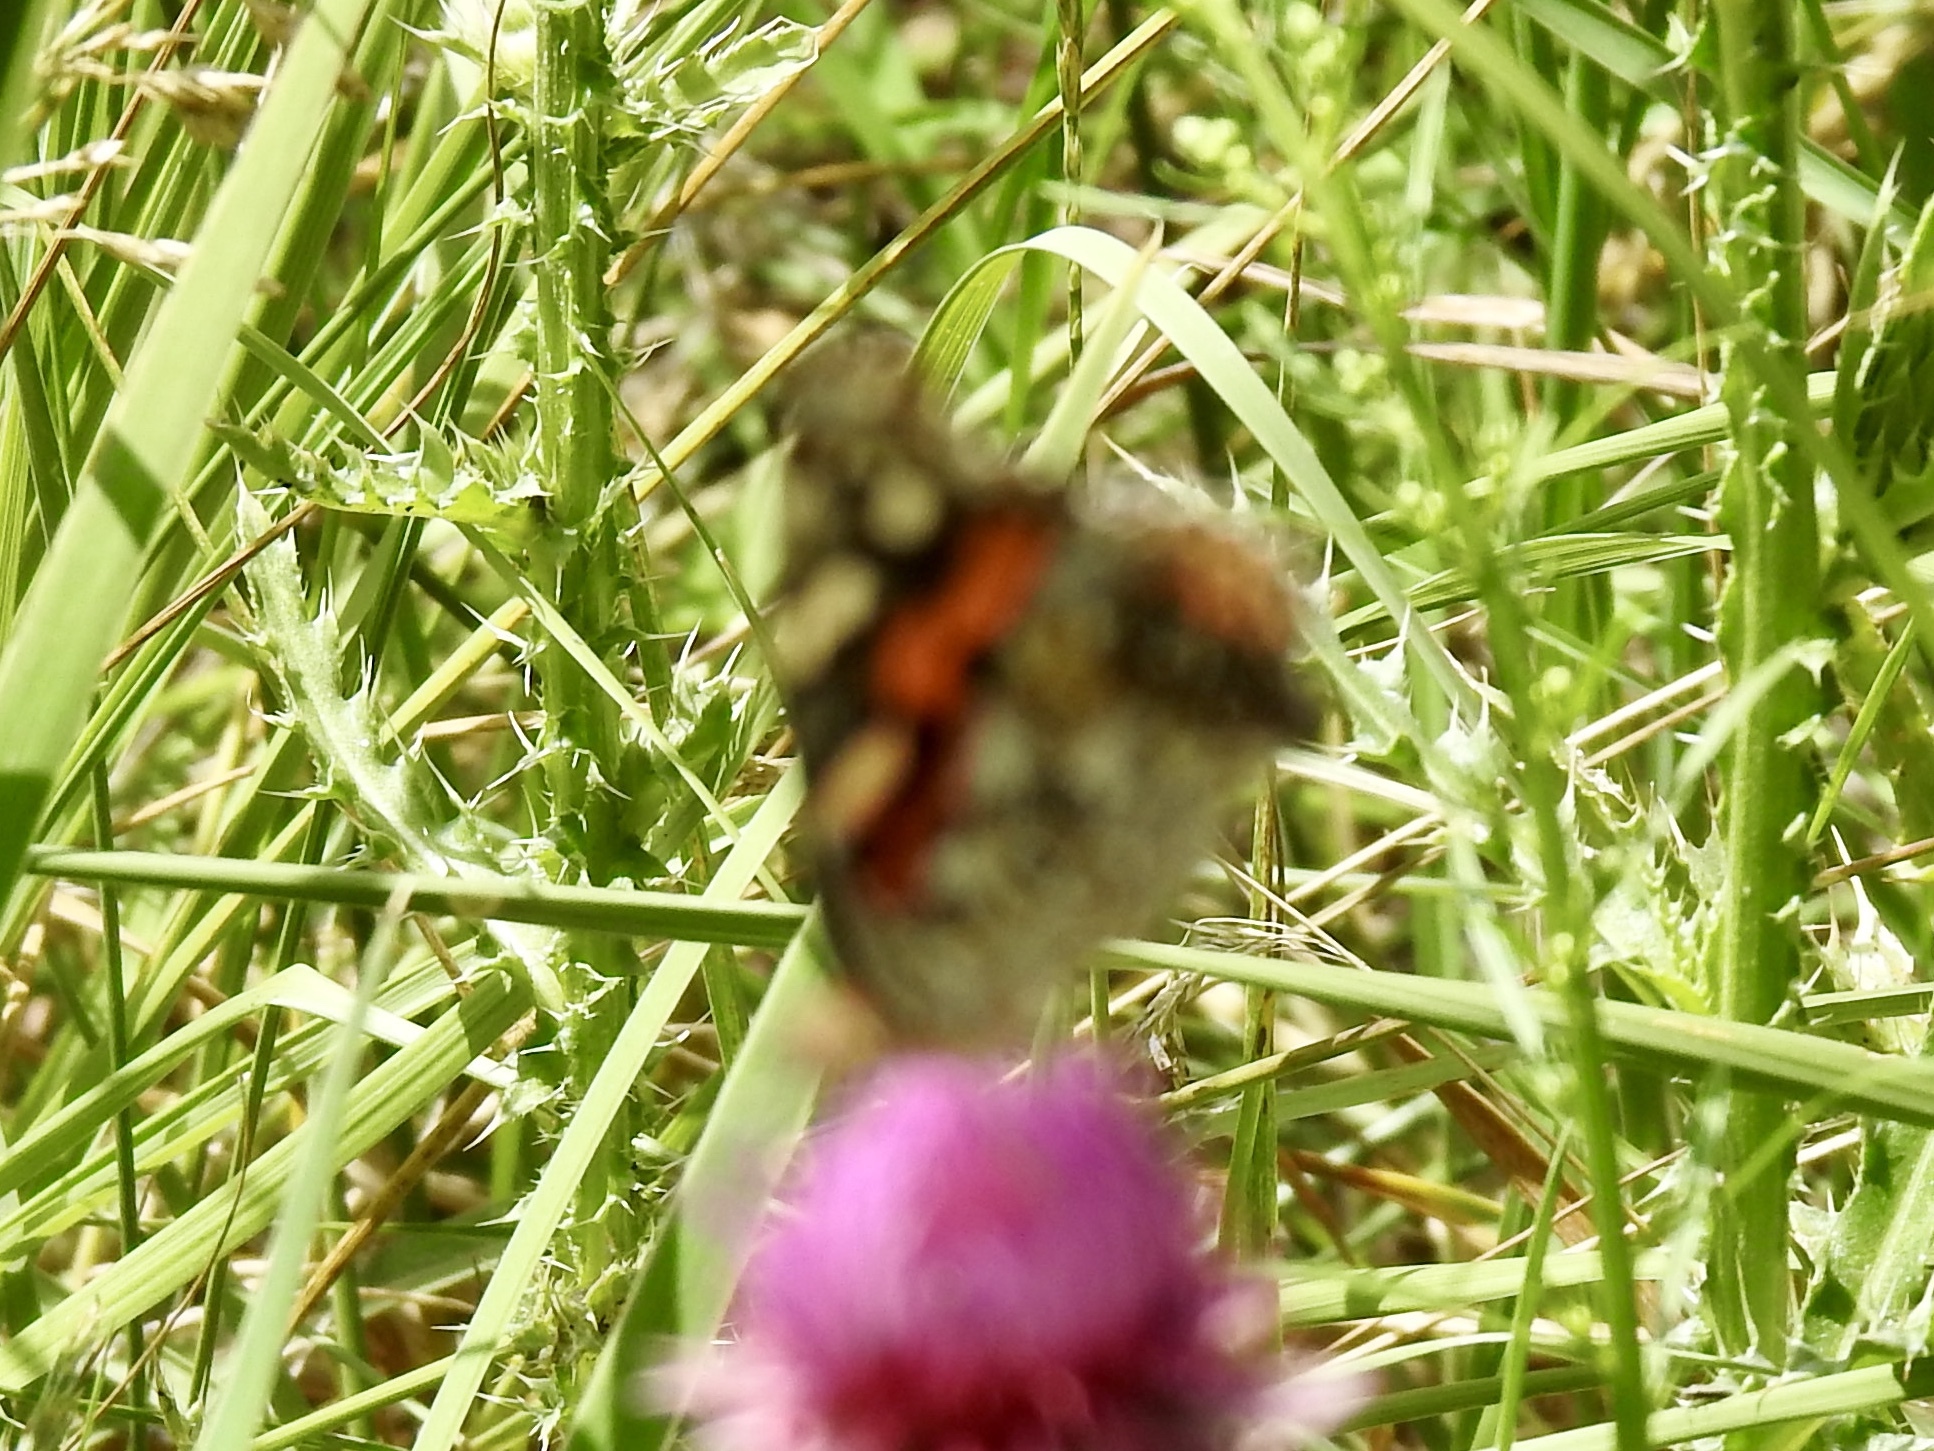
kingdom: Animalia
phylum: Arthropoda
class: Insecta
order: Lepidoptera
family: Nymphalidae
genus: Vanessa
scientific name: Vanessa cardui
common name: Painted lady
